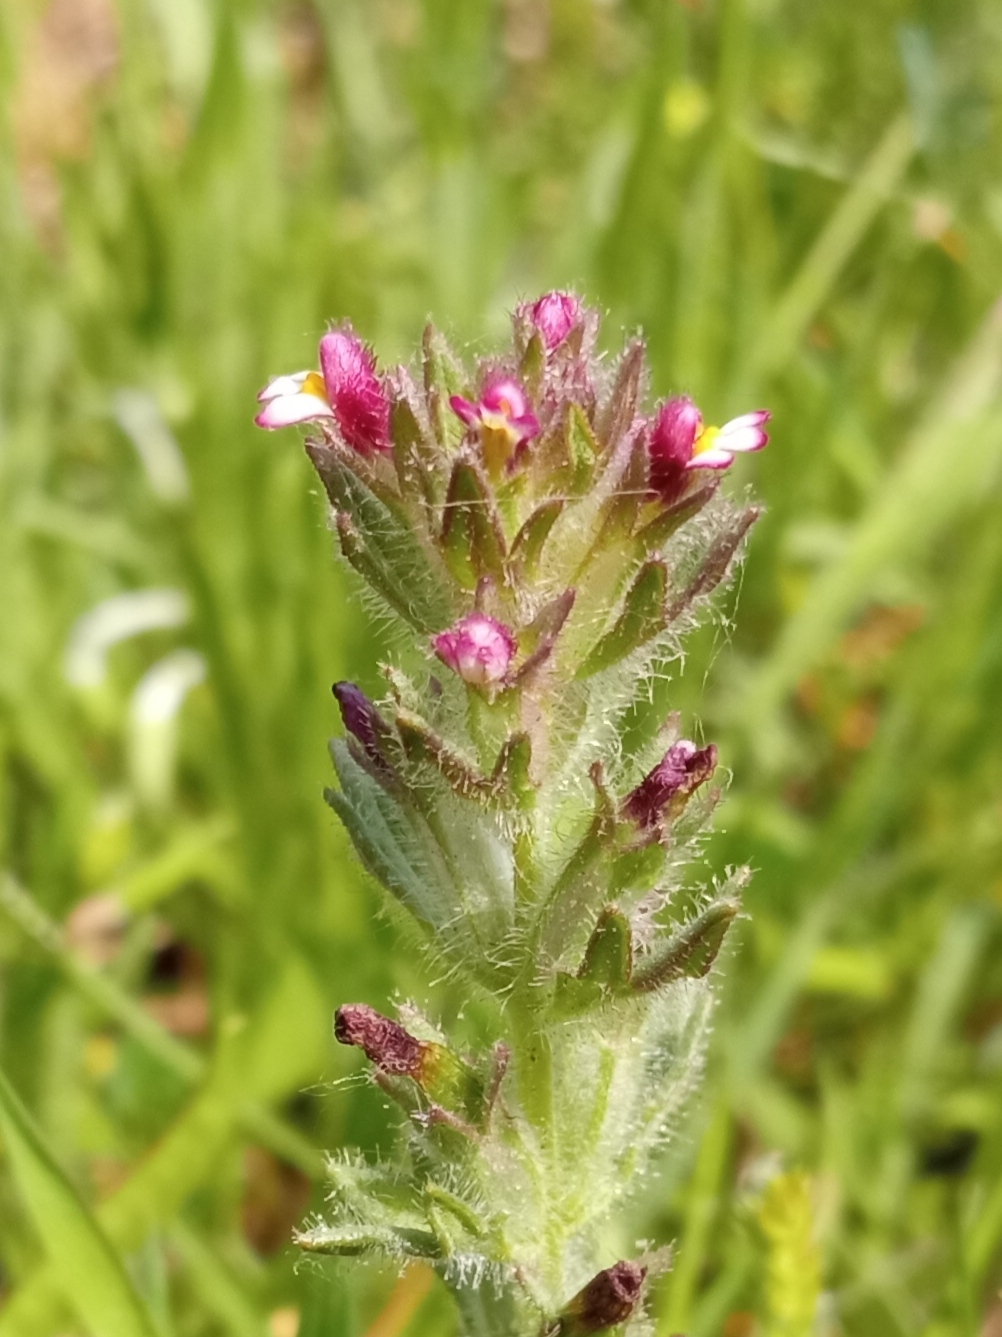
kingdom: Plantae
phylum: Tracheophyta
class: Magnoliopsida
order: Lamiales
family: Orobanchaceae
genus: Parentucellia
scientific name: Parentucellia latifolia
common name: Broadleaf glandweed
